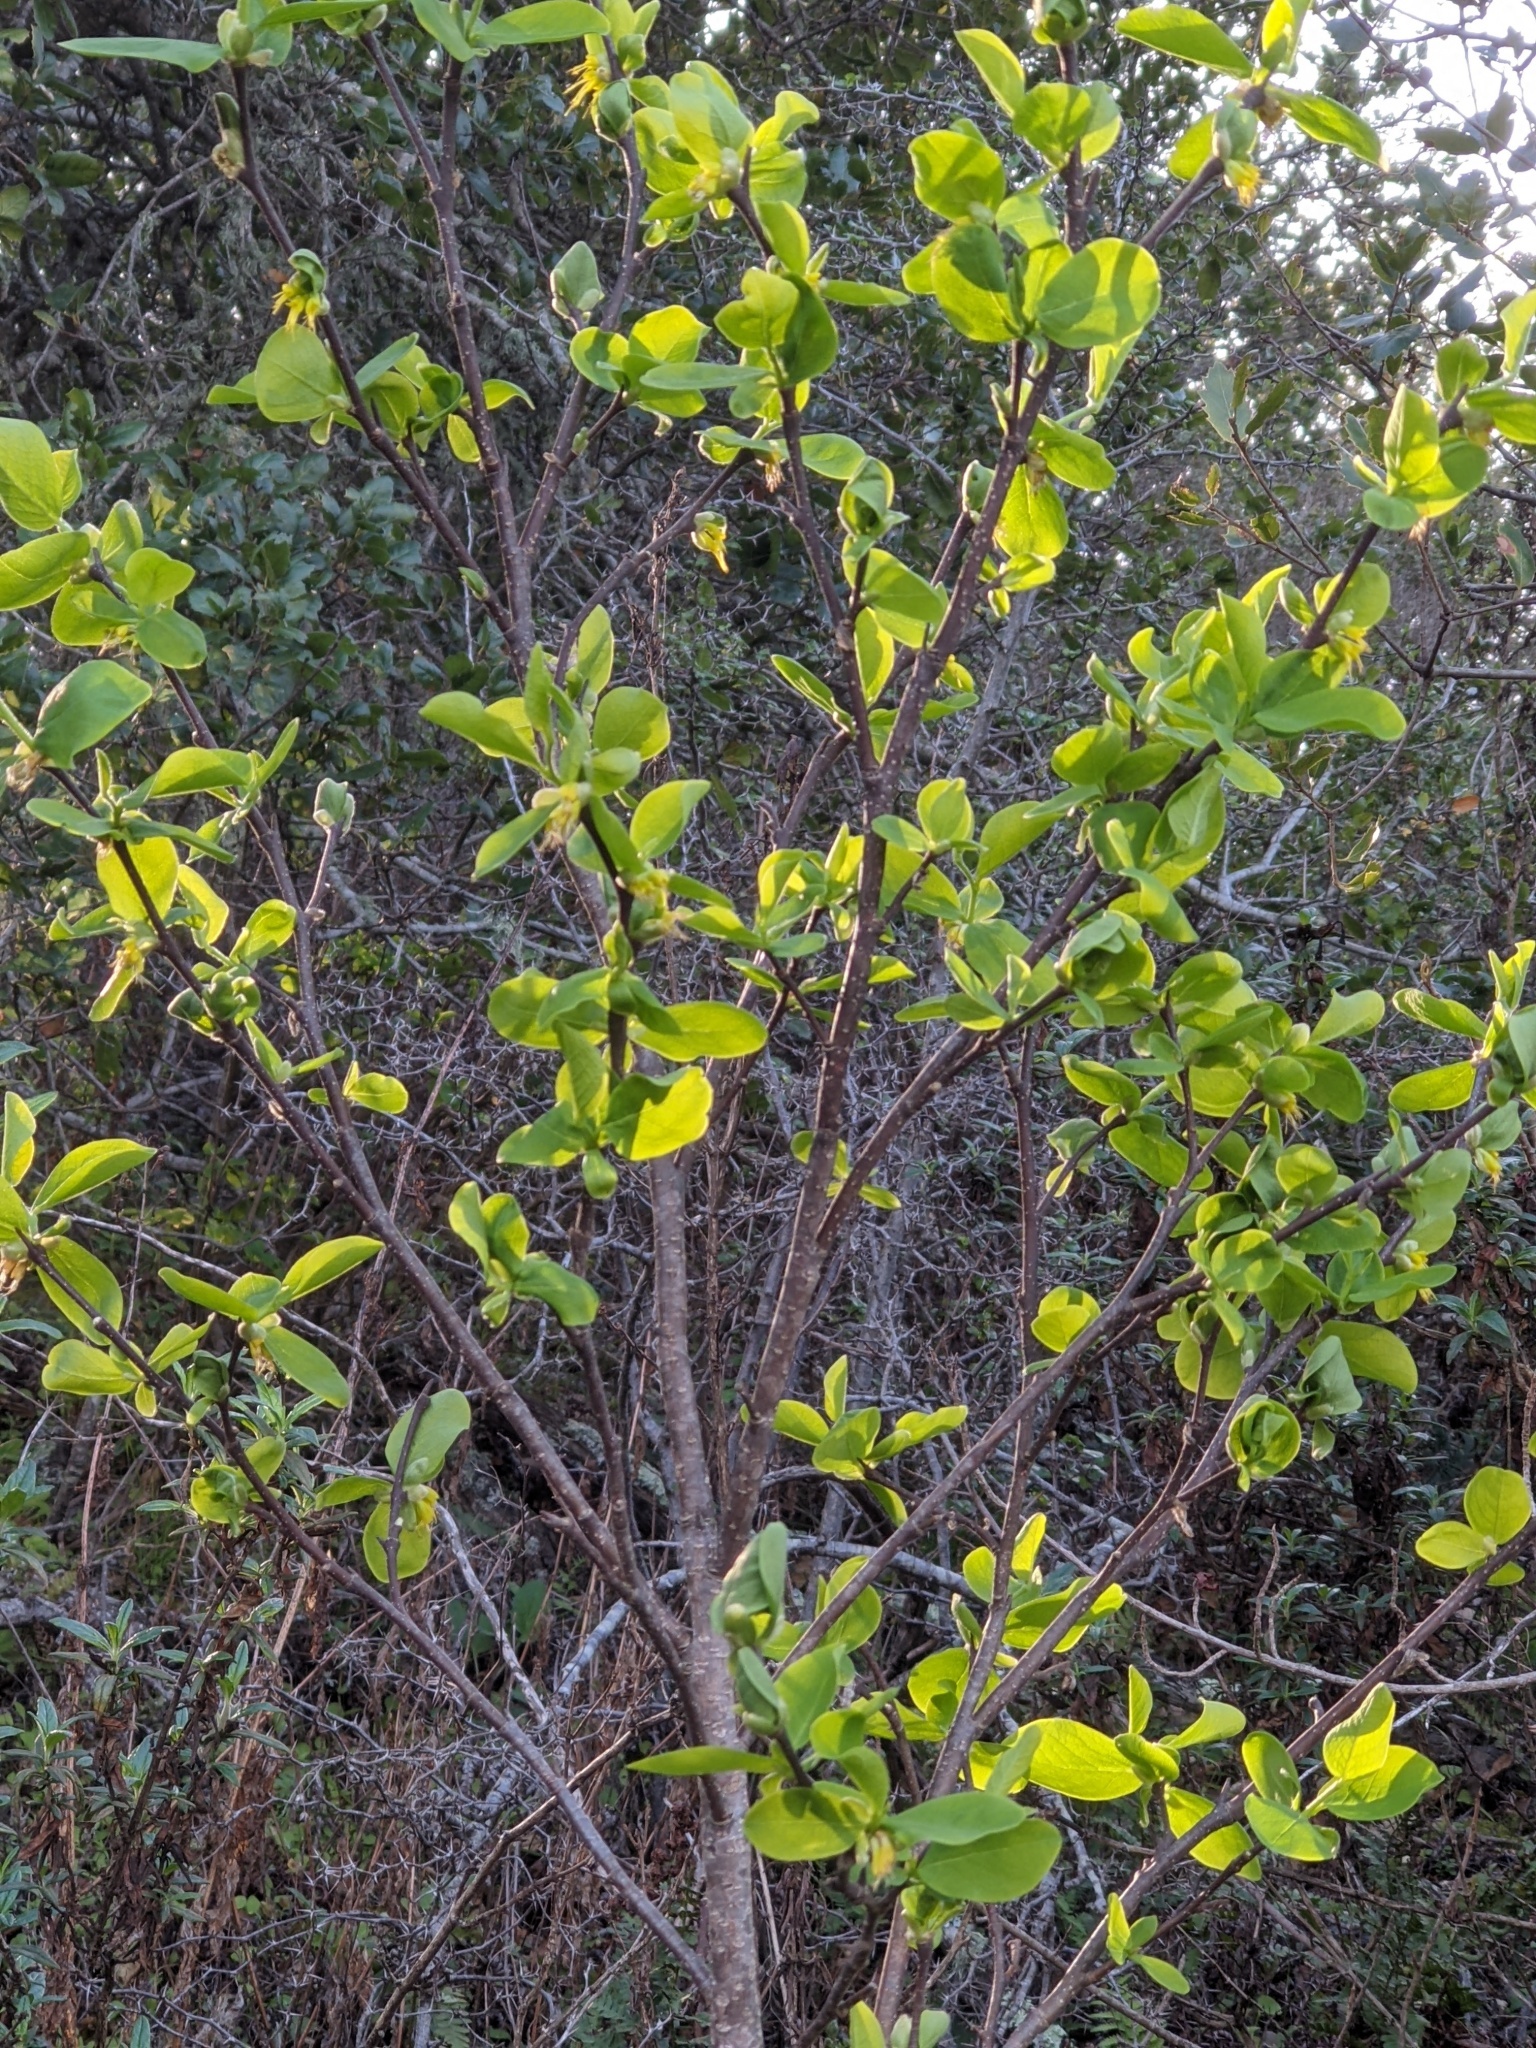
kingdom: Plantae
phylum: Tracheophyta
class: Magnoliopsida
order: Malvales
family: Thymelaeaceae
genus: Dirca
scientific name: Dirca occidentalis
